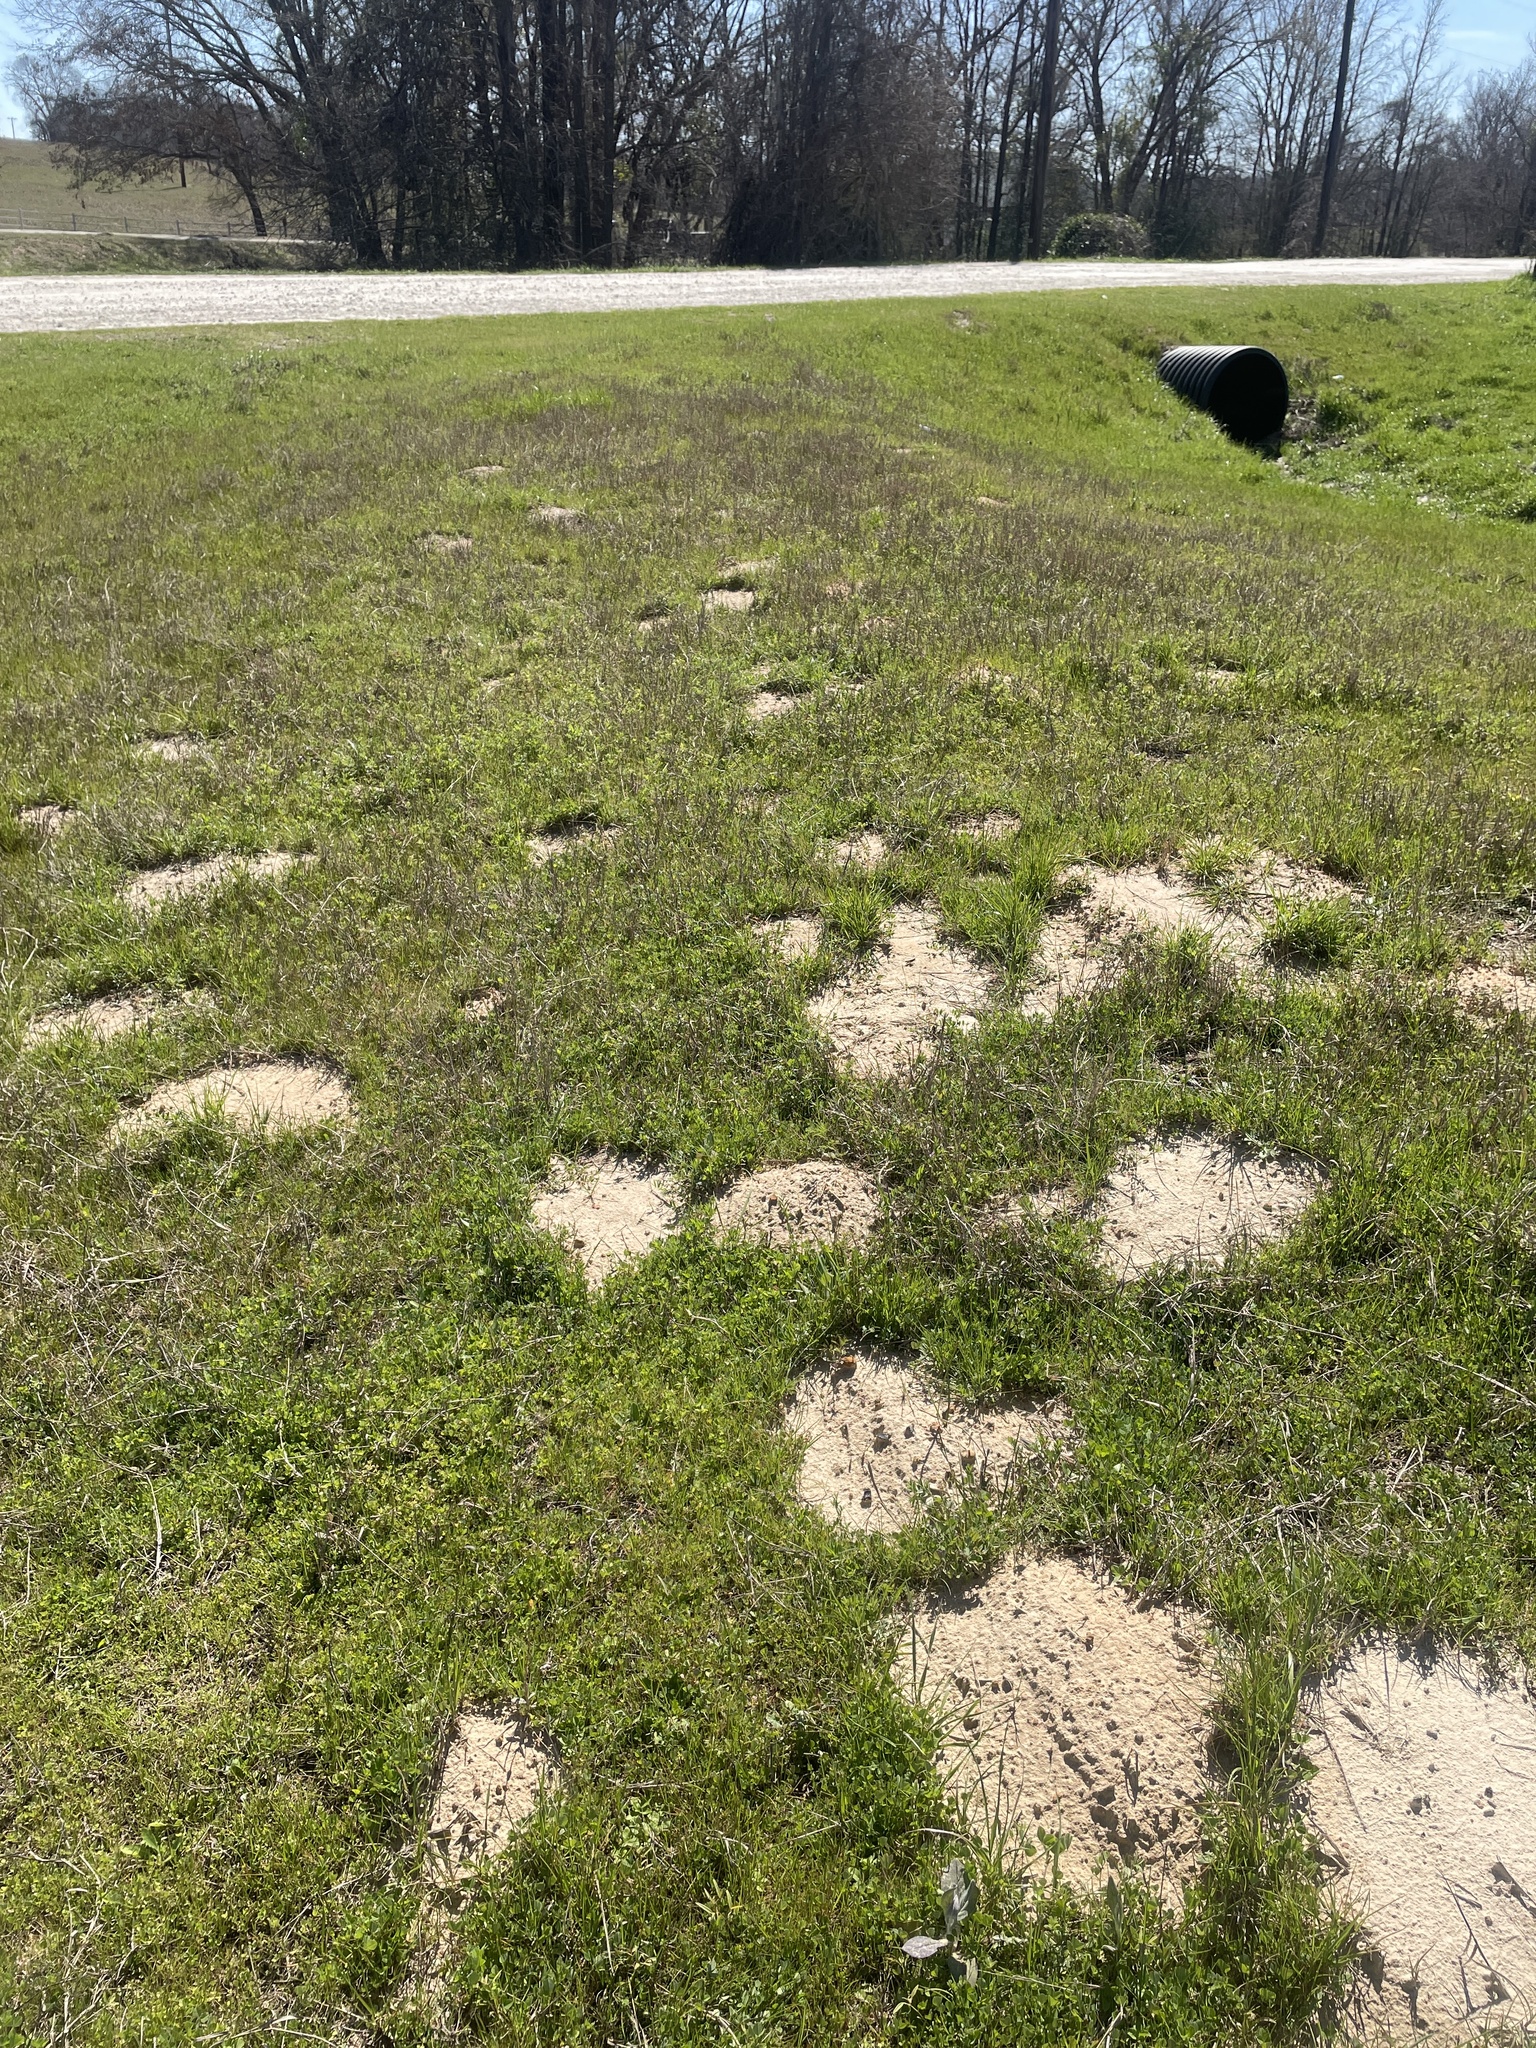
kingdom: Animalia
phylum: Chordata
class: Mammalia
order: Rodentia
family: Geomyidae
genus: Geomys
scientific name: Geomys breviceps
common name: Baird's pocket gopher
